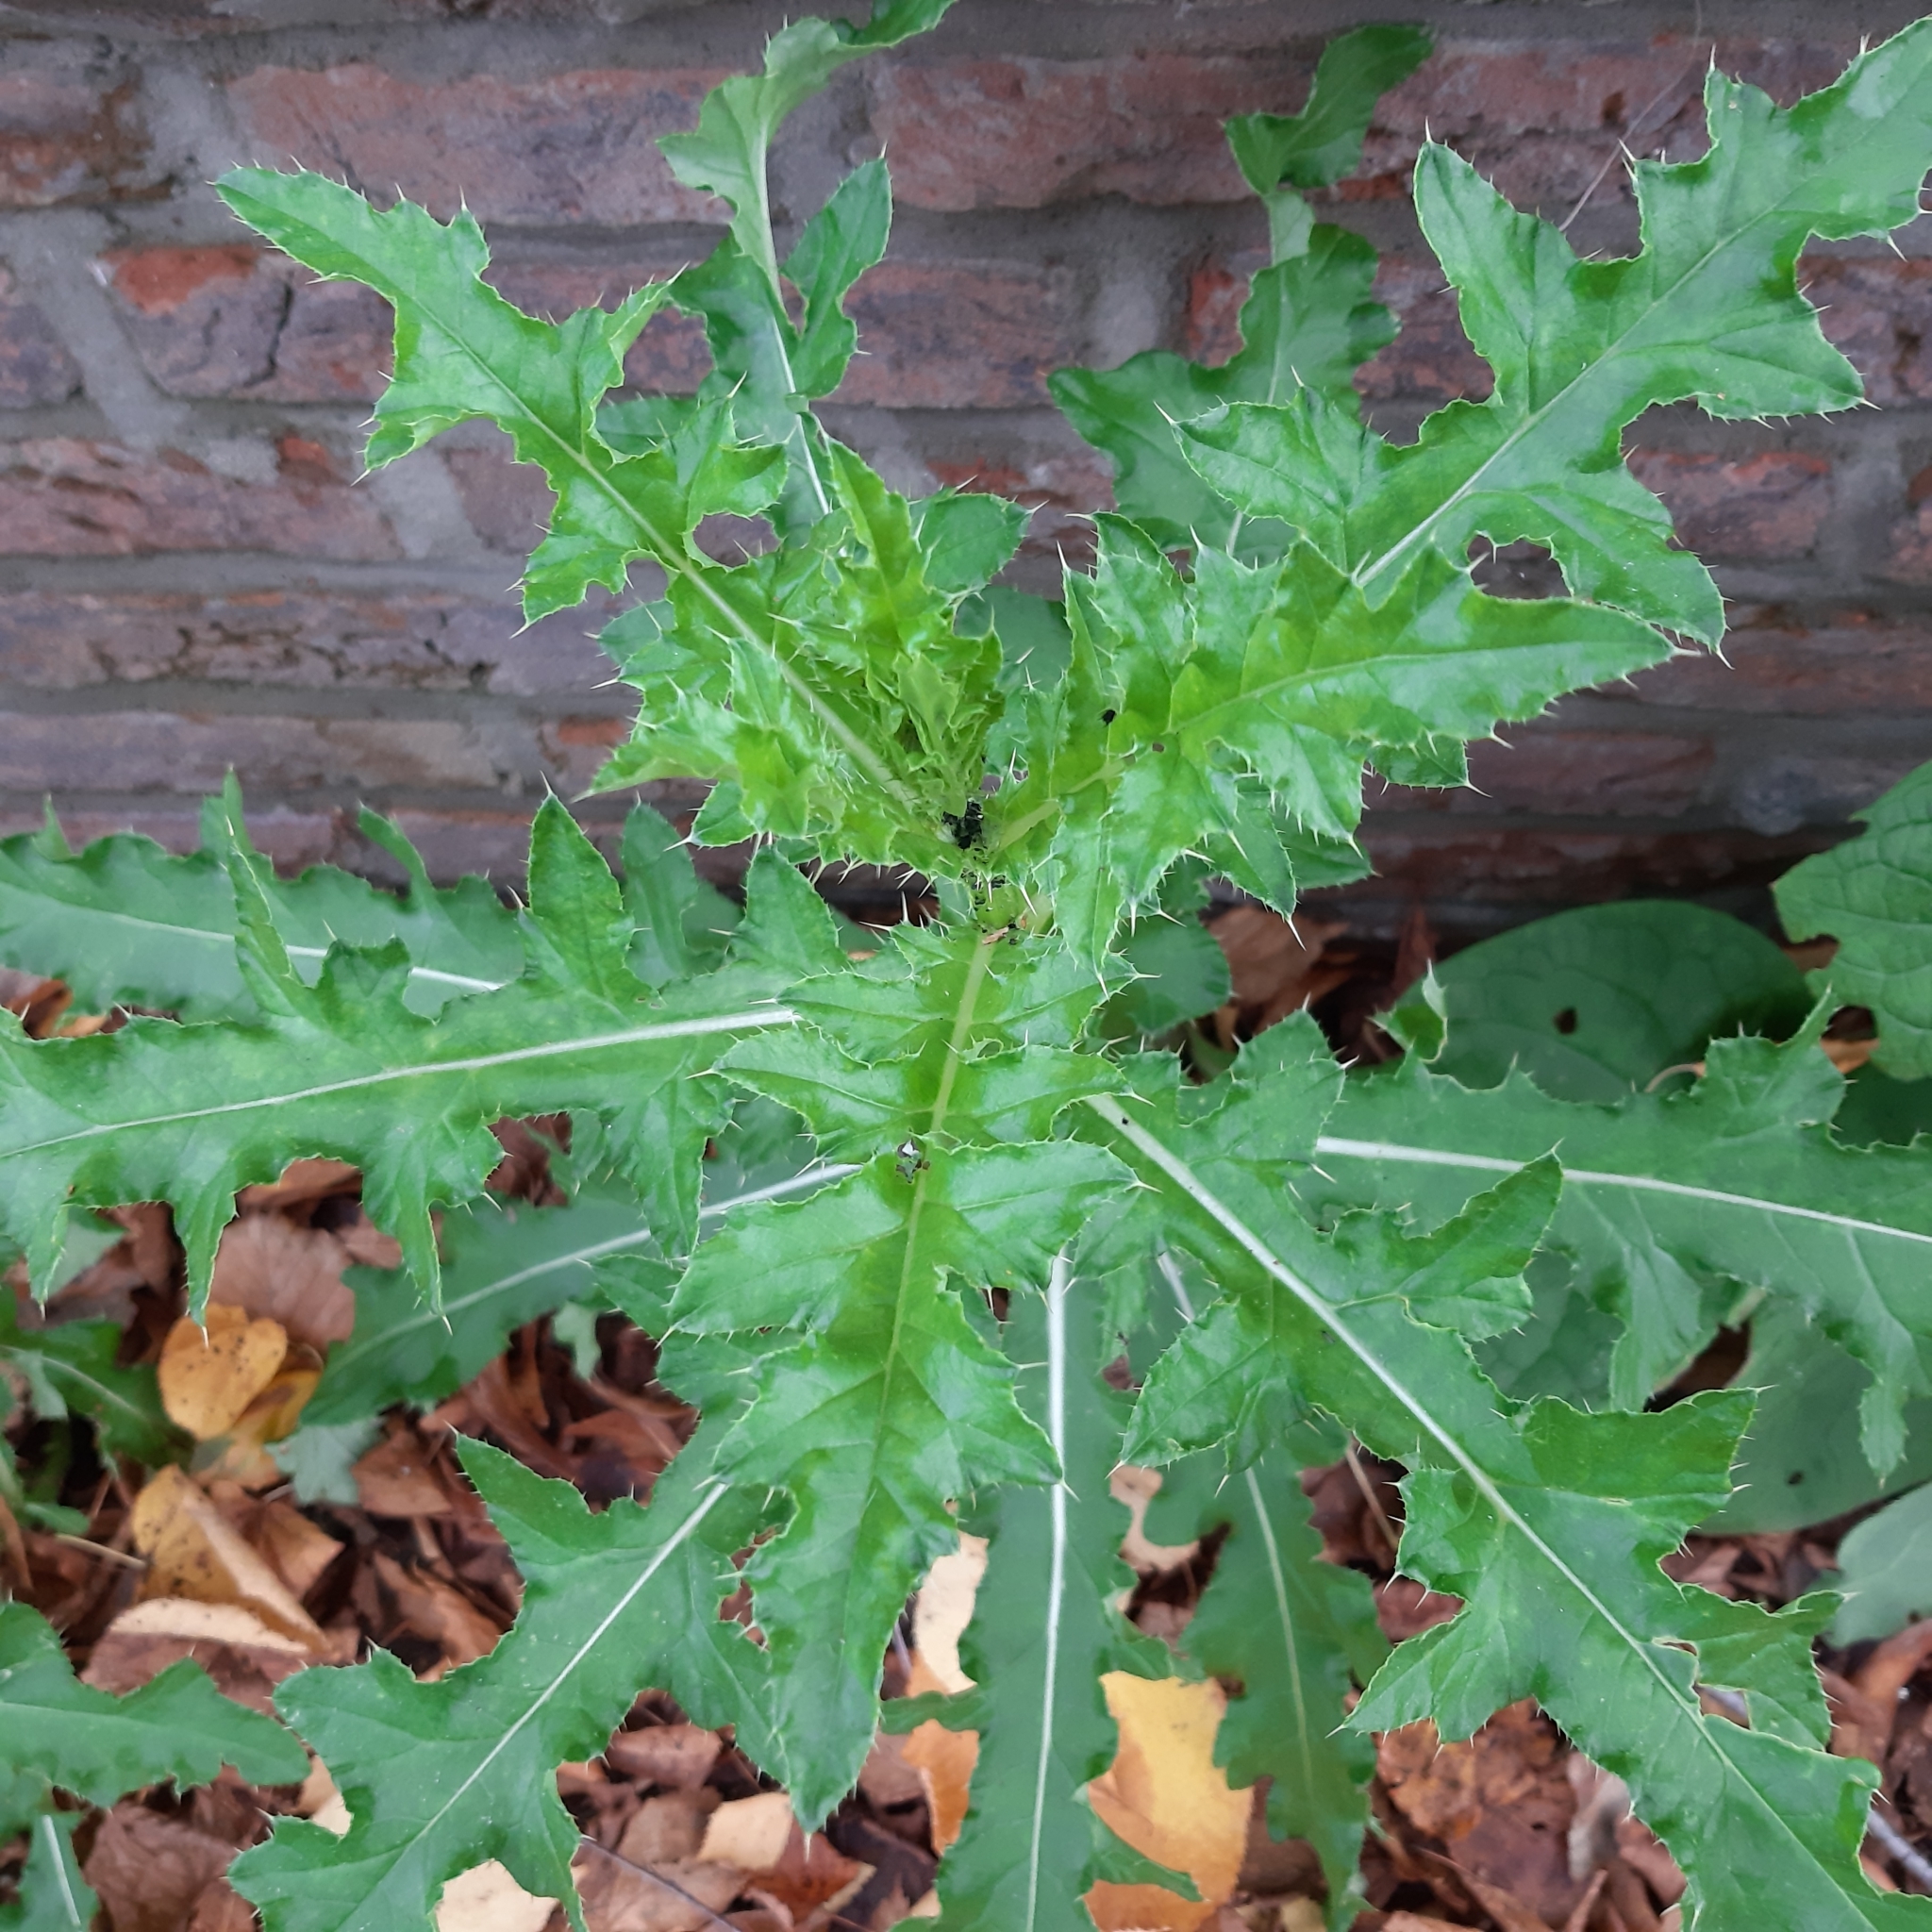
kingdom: Plantae
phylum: Tracheophyta
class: Magnoliopsida
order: Asterales
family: Asteraceae
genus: Cirsium
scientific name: Cirsium arvense
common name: Creeping thistle
